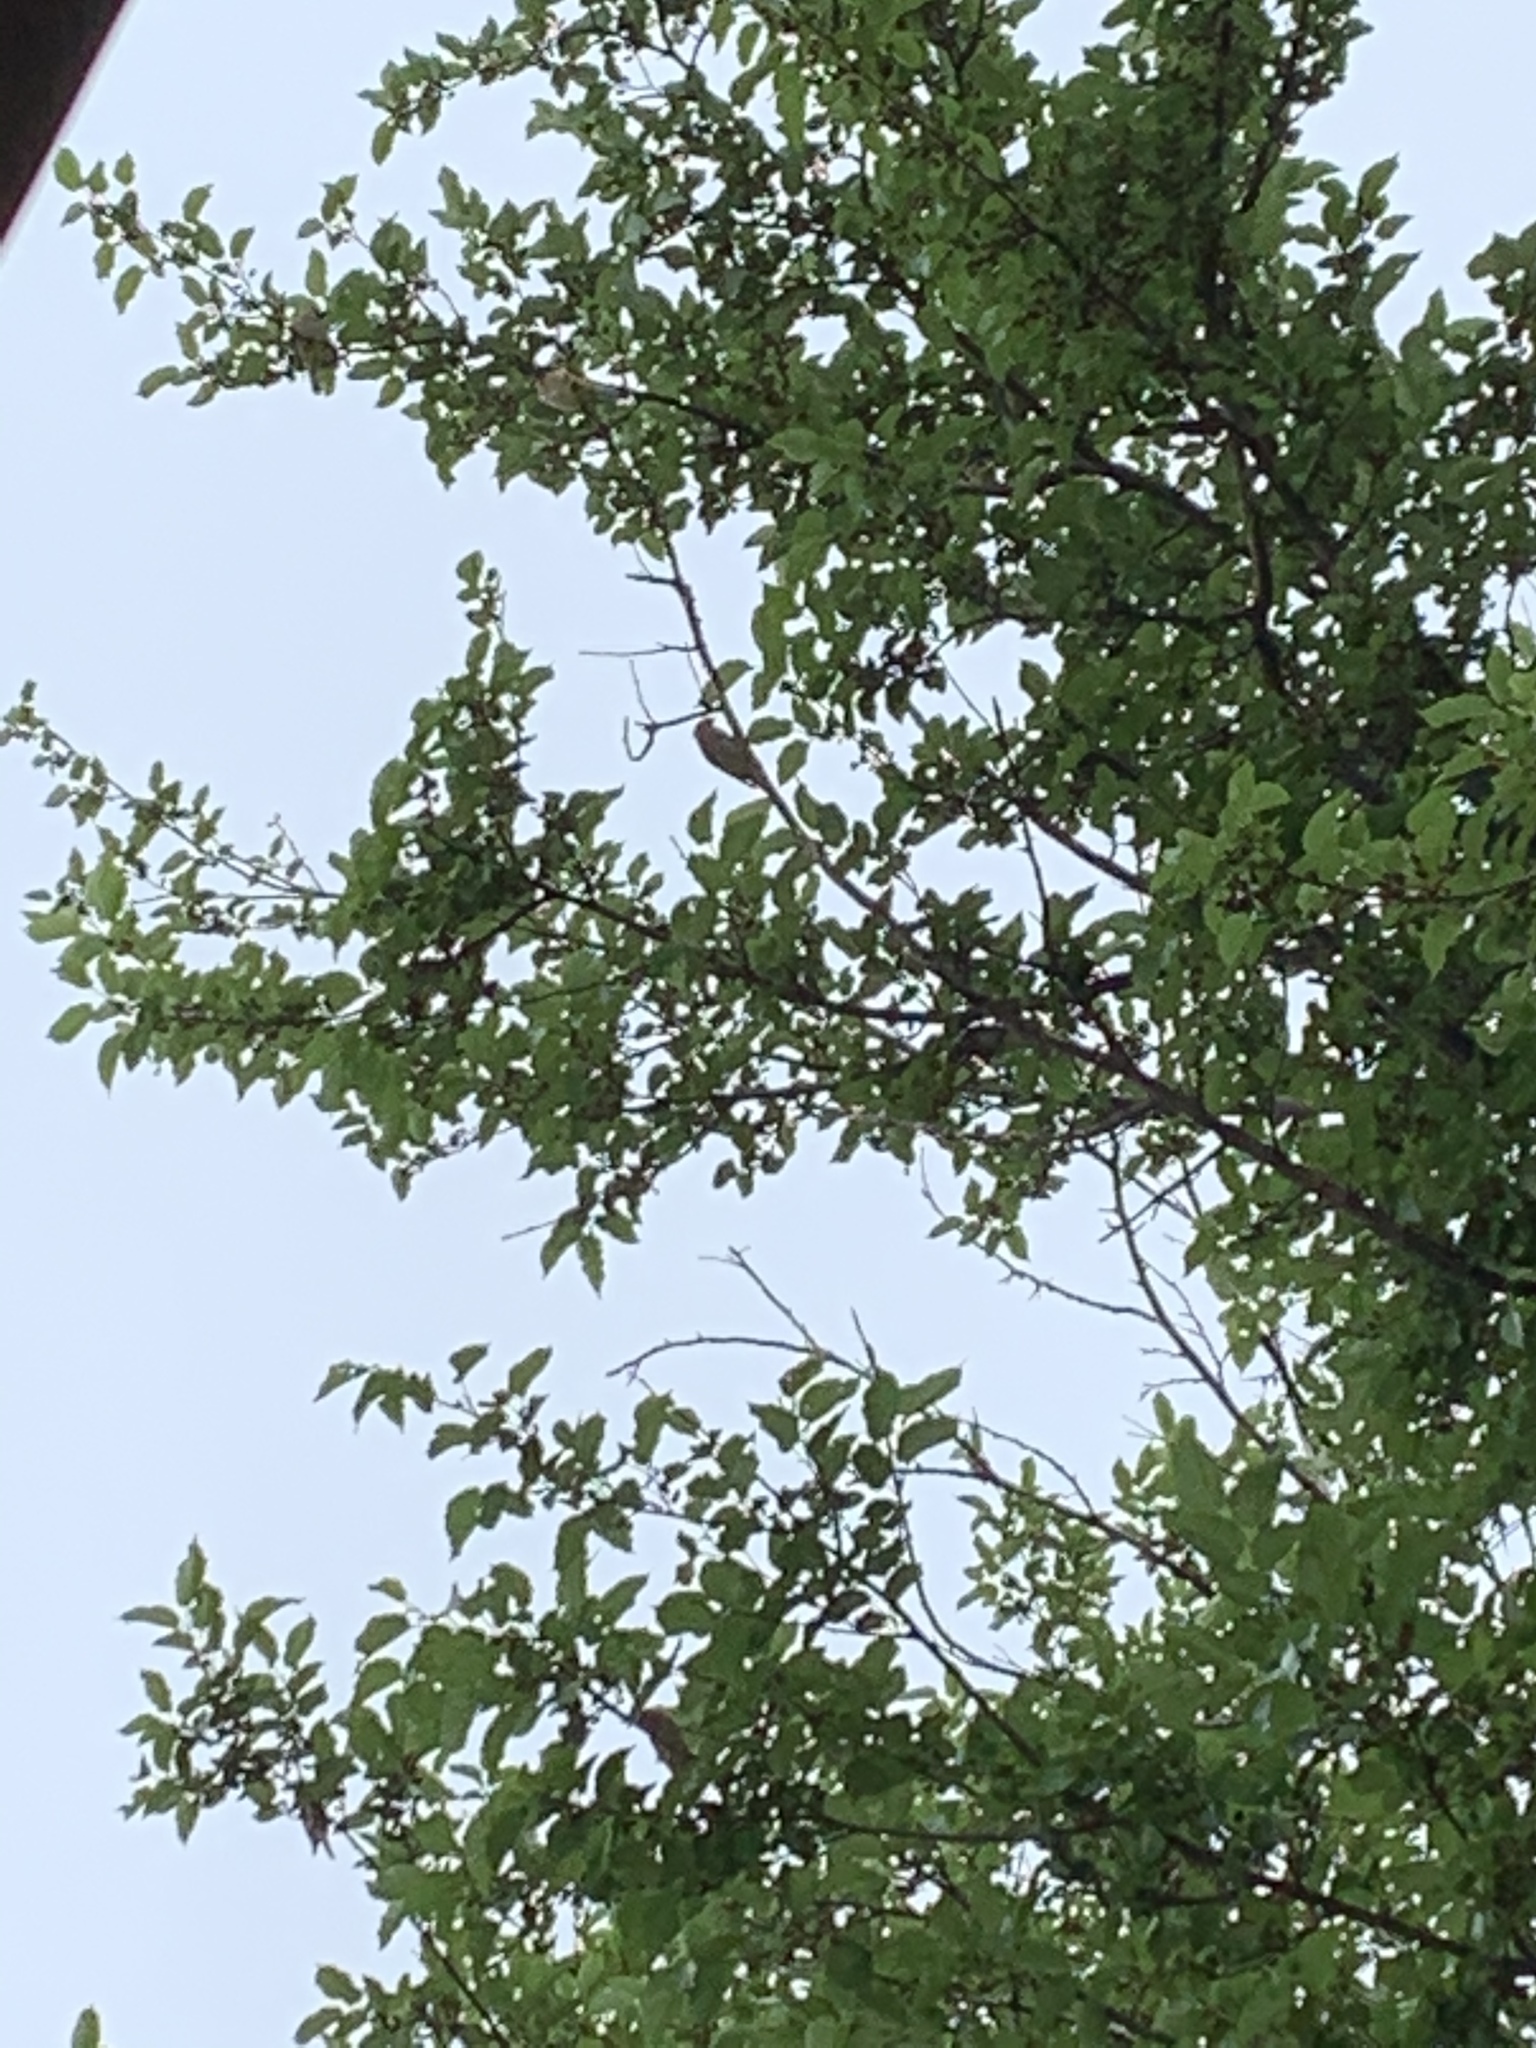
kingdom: Animalia
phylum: Chordata
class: Aves
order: Passeriformes
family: Bombycillidae
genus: Bombycilla
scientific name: Bombycilla cedrorum
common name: Cedar waxwing
